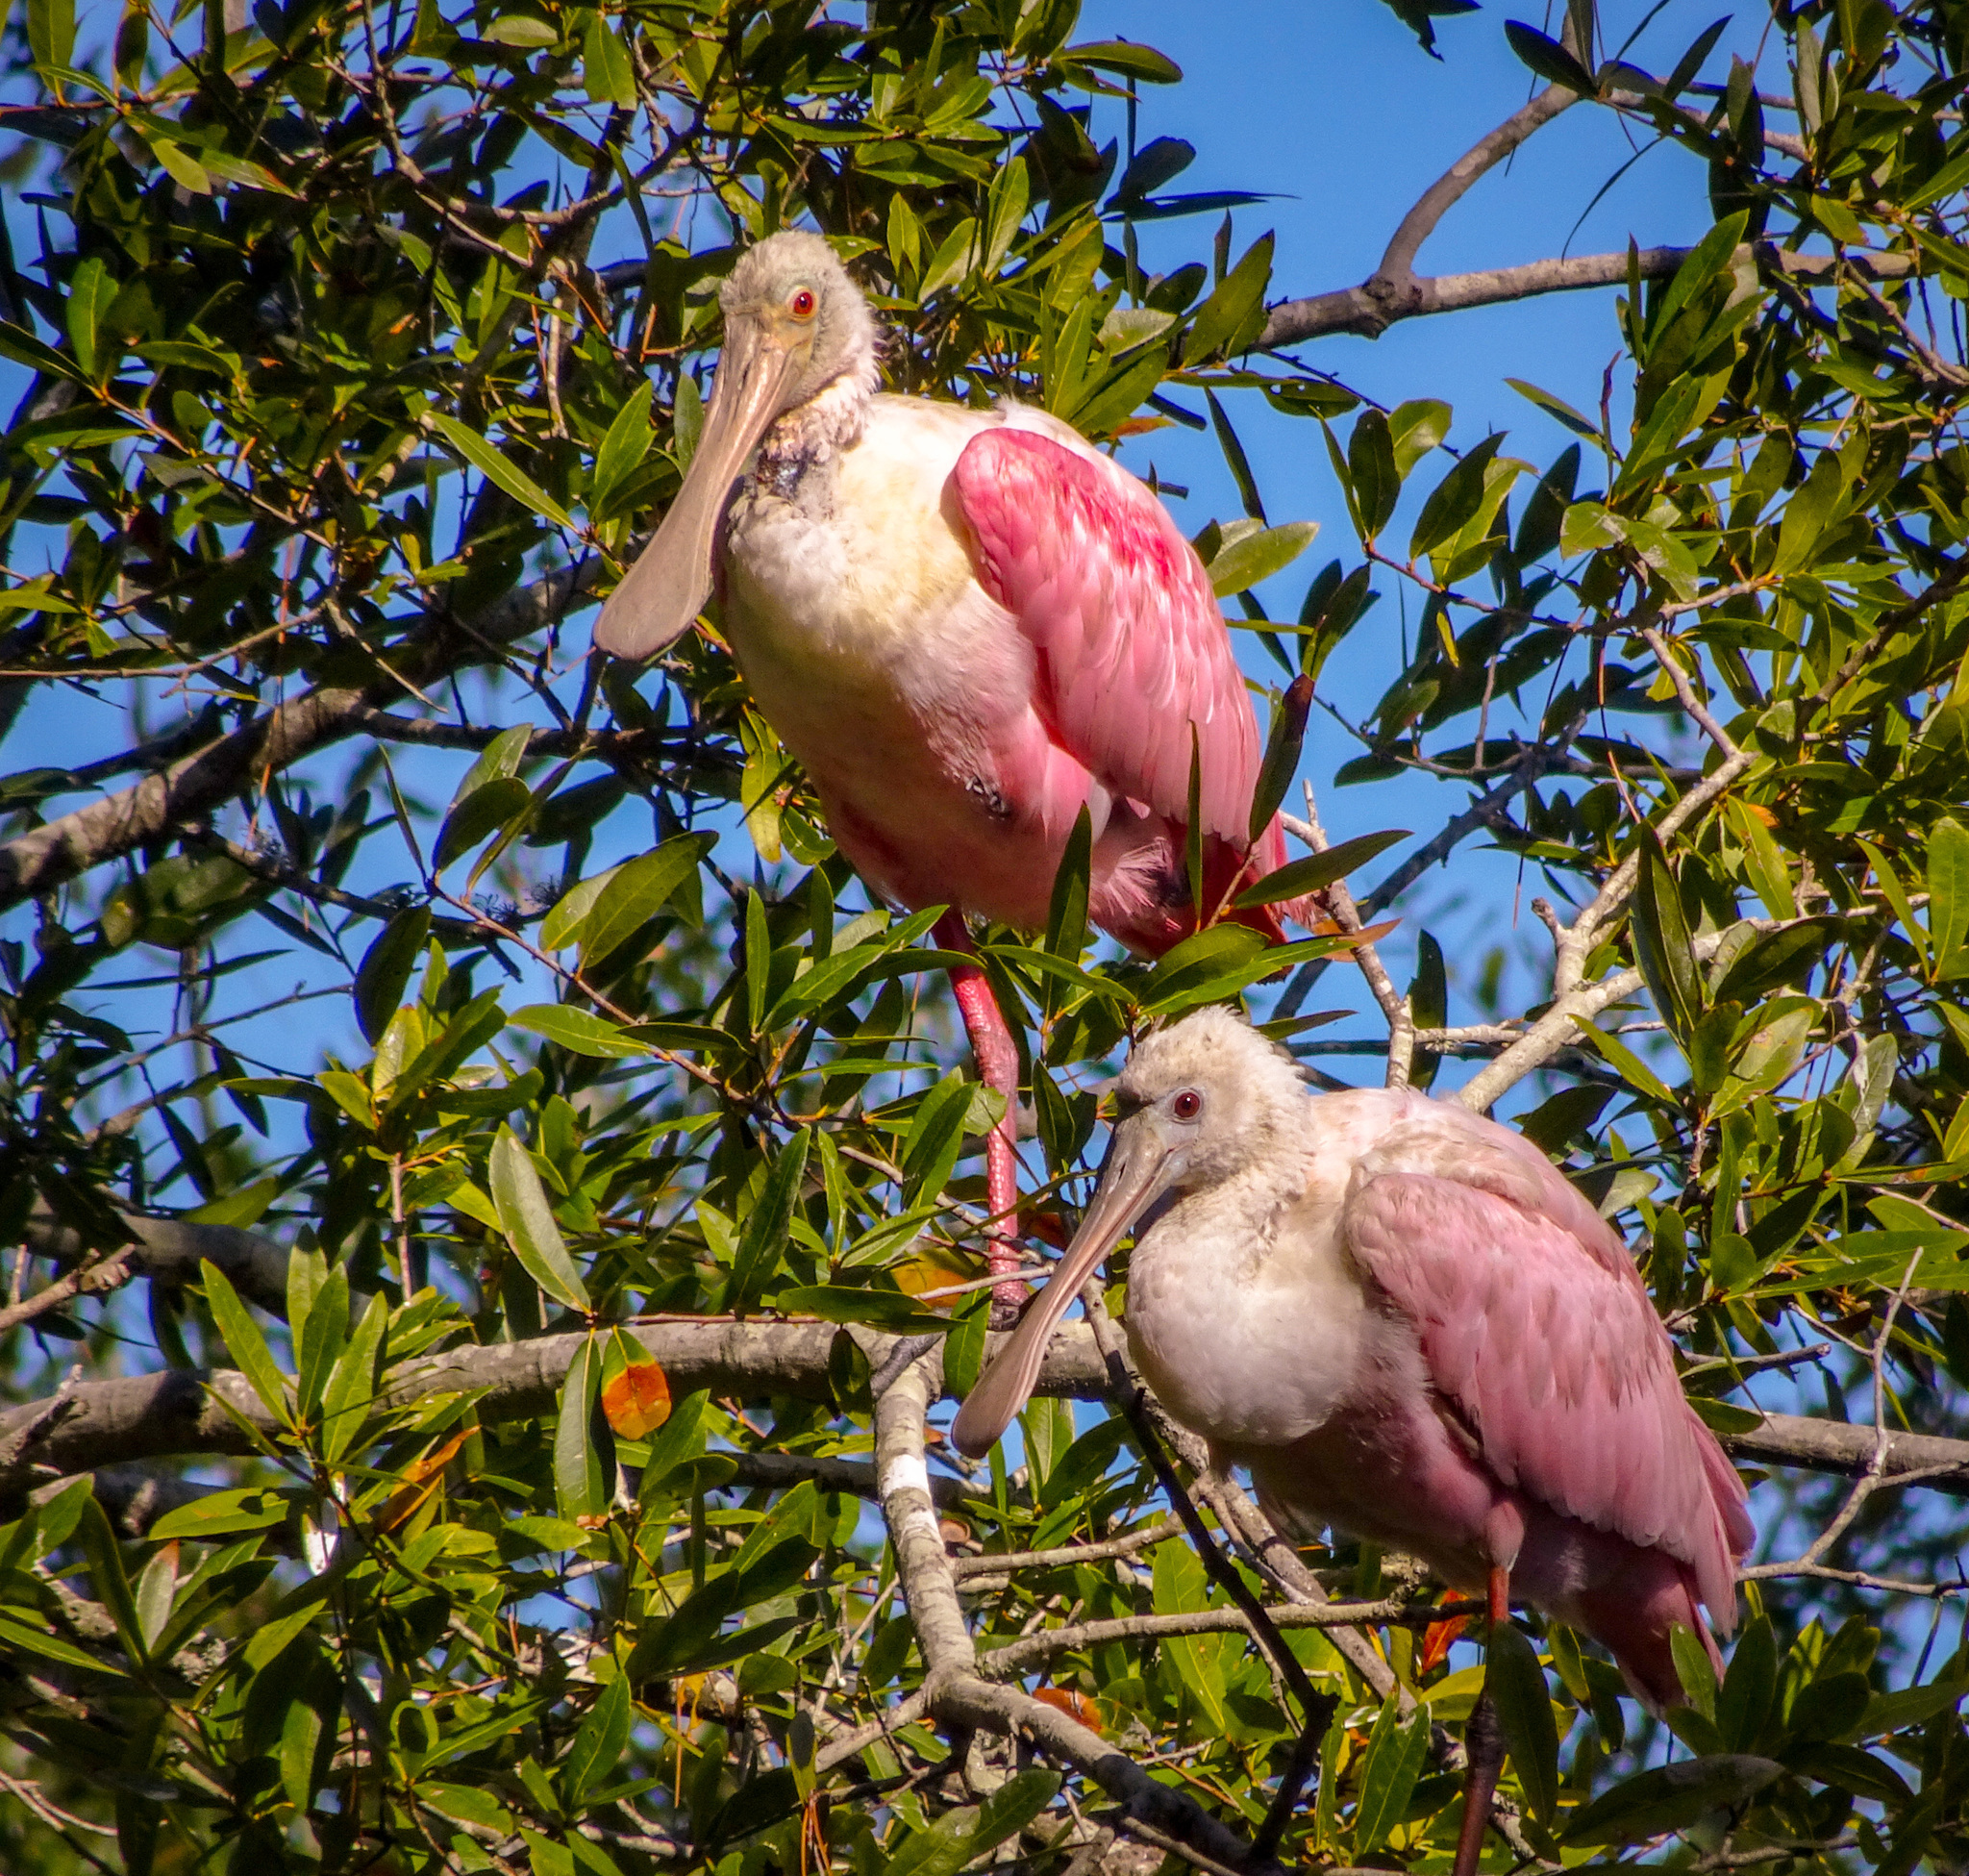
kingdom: Animalia
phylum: Chordata
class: Aves
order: Pelecaniformes
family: Threskiornithidae
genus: Platalea
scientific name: Platalea ajaja
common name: Roseate spoonbill
